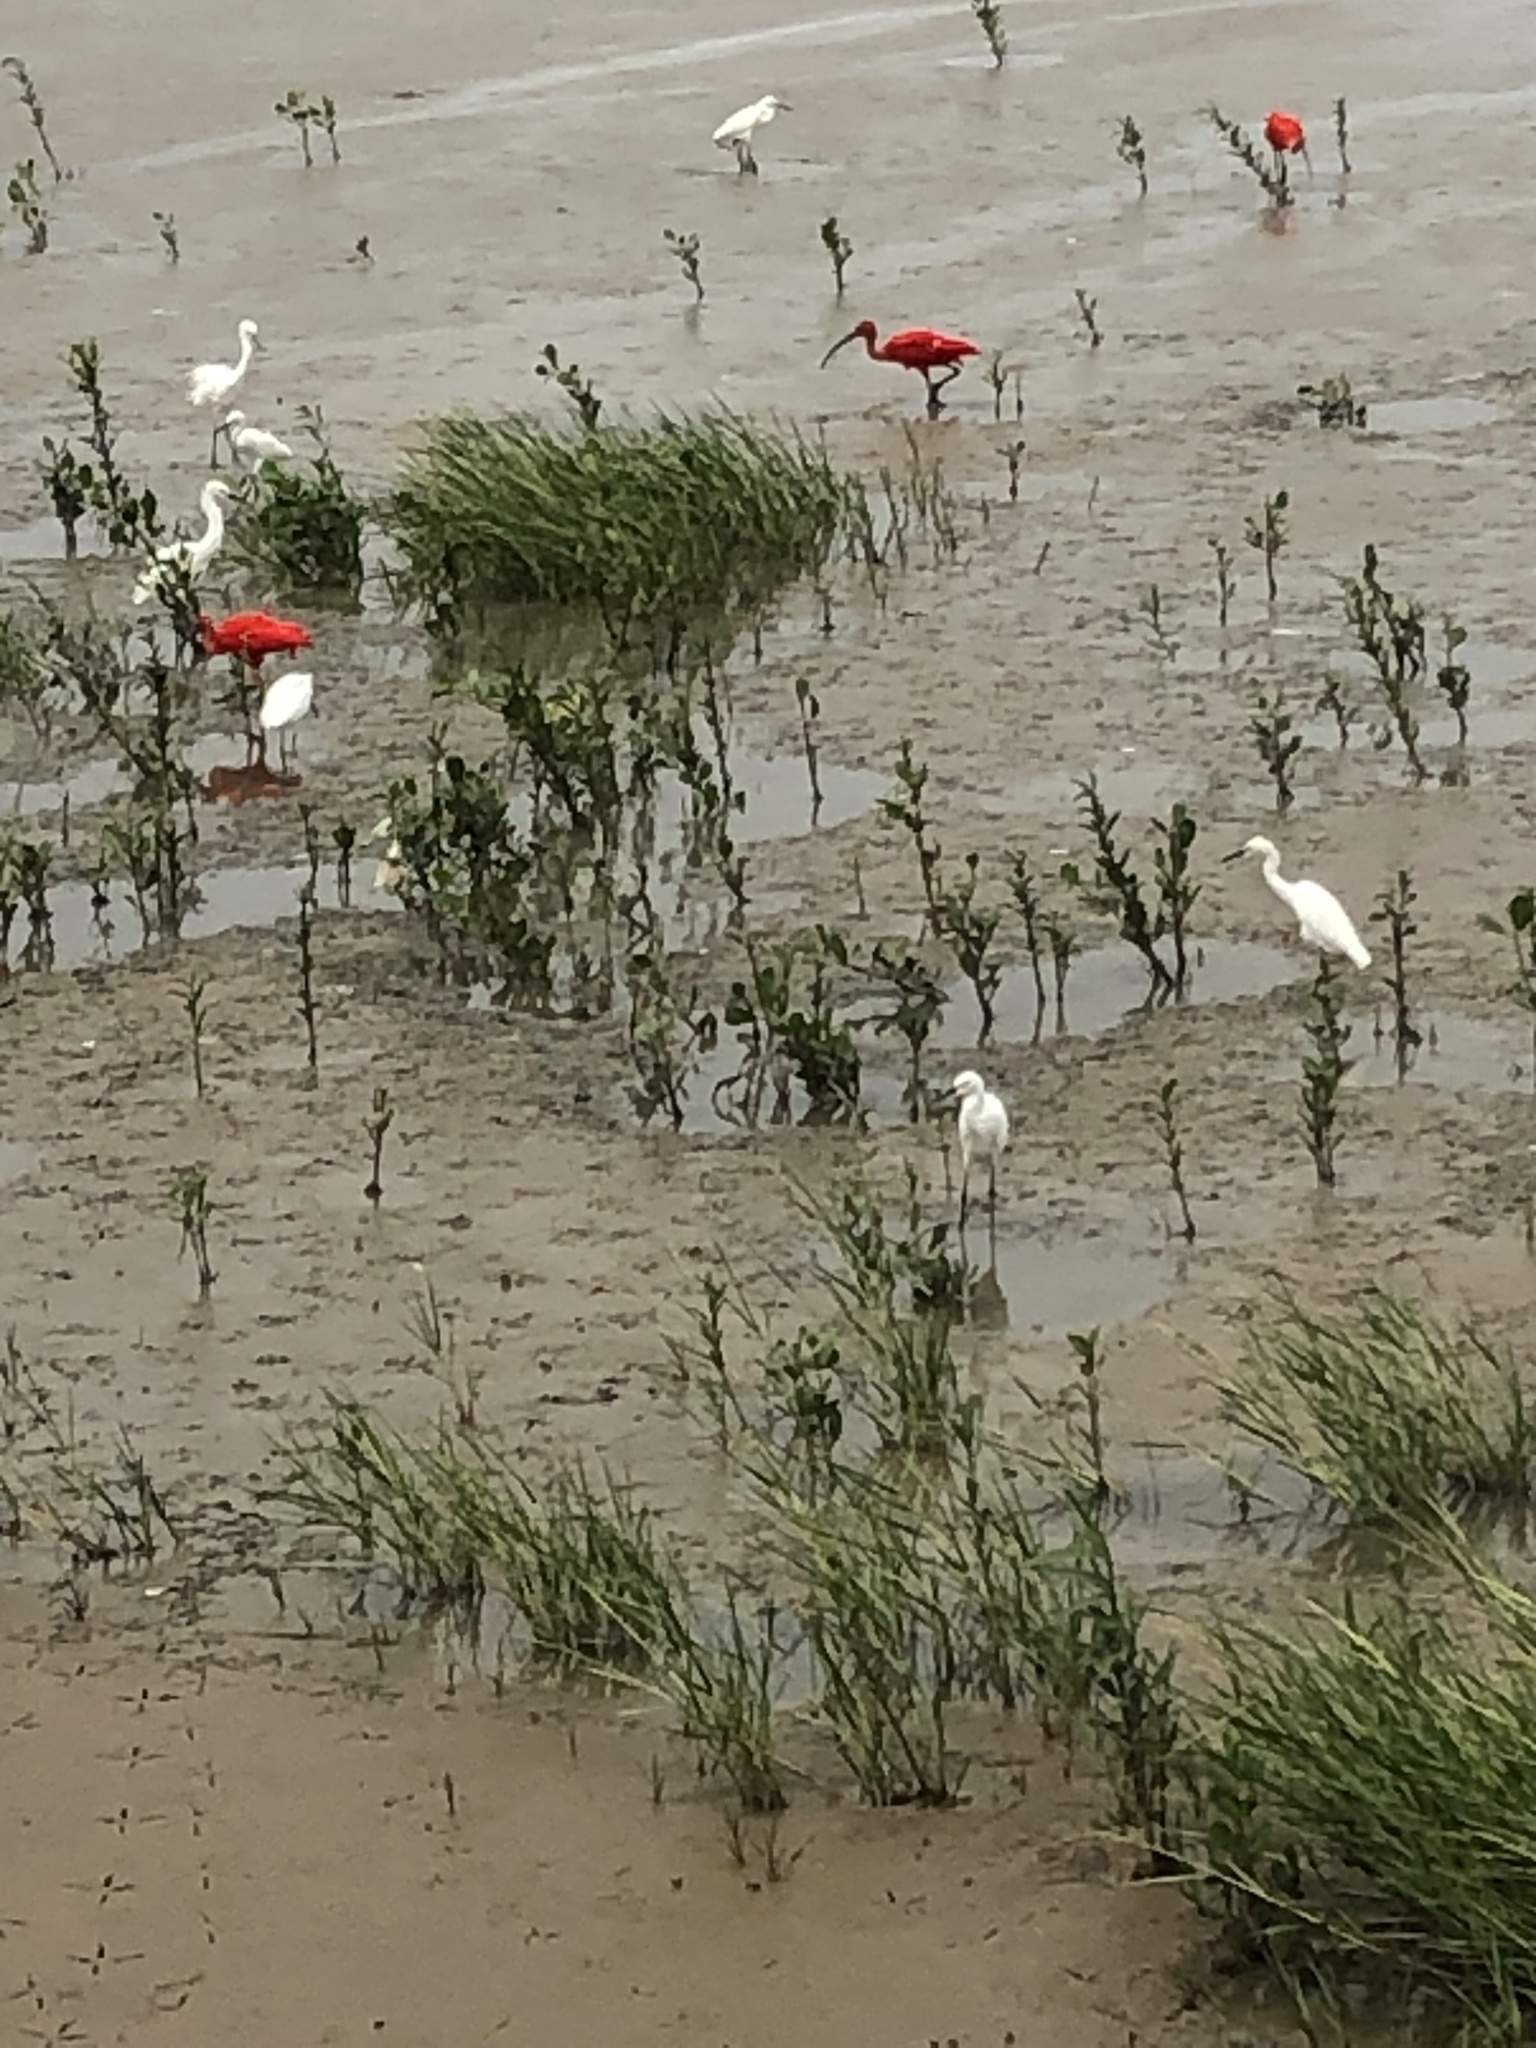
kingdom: Animalia
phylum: Chordata
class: Aves
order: Pelecaniformes
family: Threskiornithidae
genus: Eudocimus
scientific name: Eudocimus ruber
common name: Scarlet ibis
